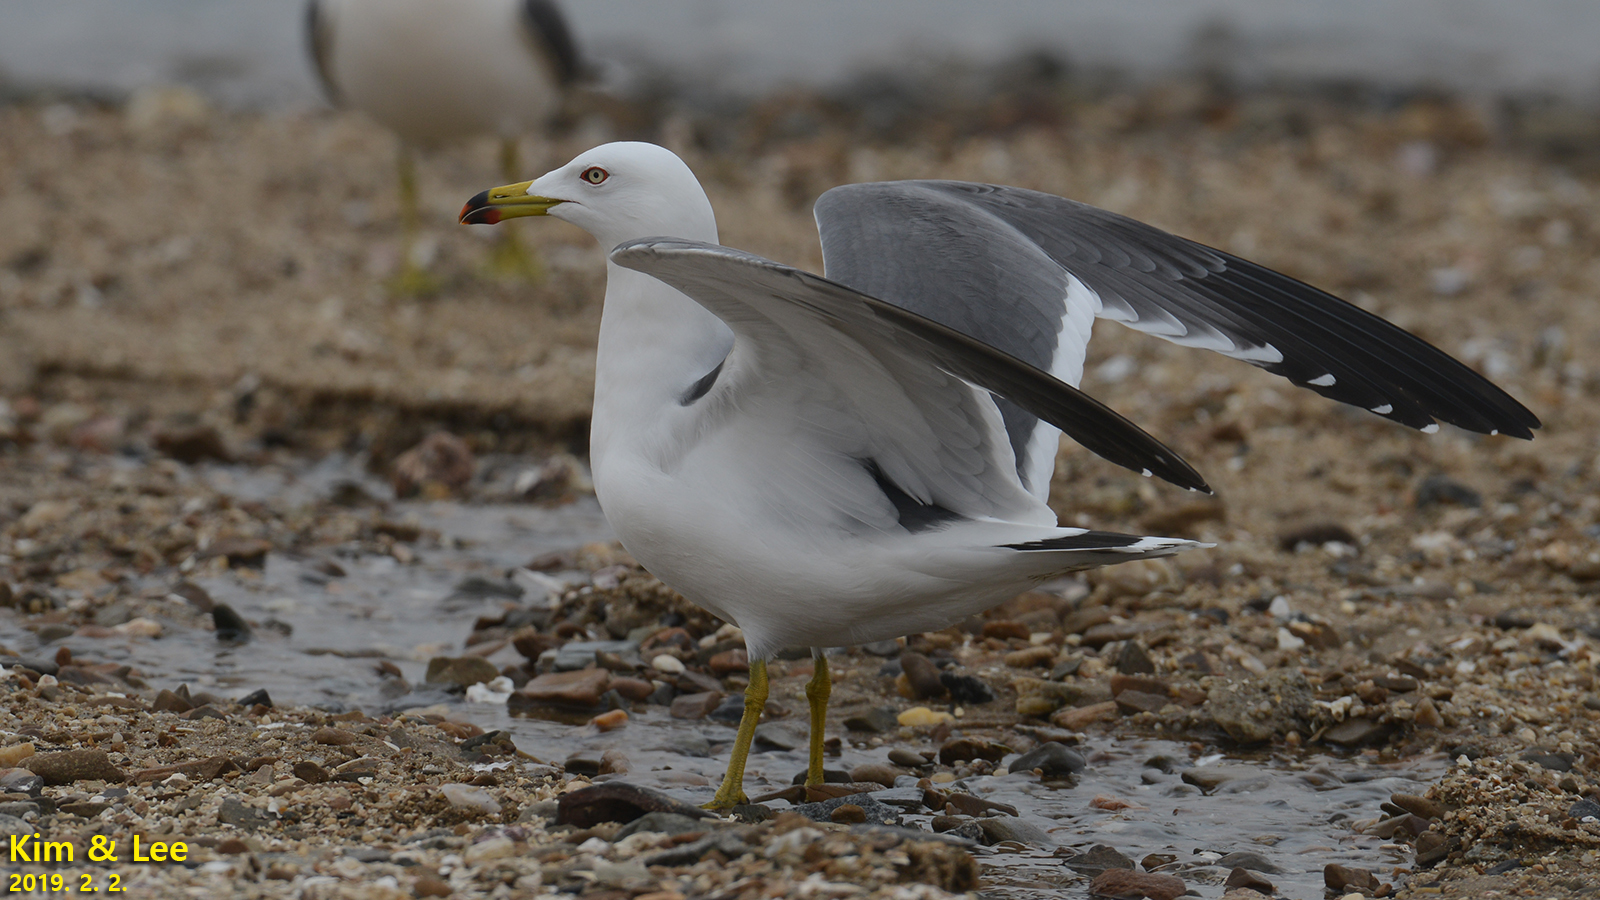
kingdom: Animalia
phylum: Chordata
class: Aves
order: Charadriiformes
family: Laridae
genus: Larus
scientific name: Larus crassirostris
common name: Black-tailed gull
